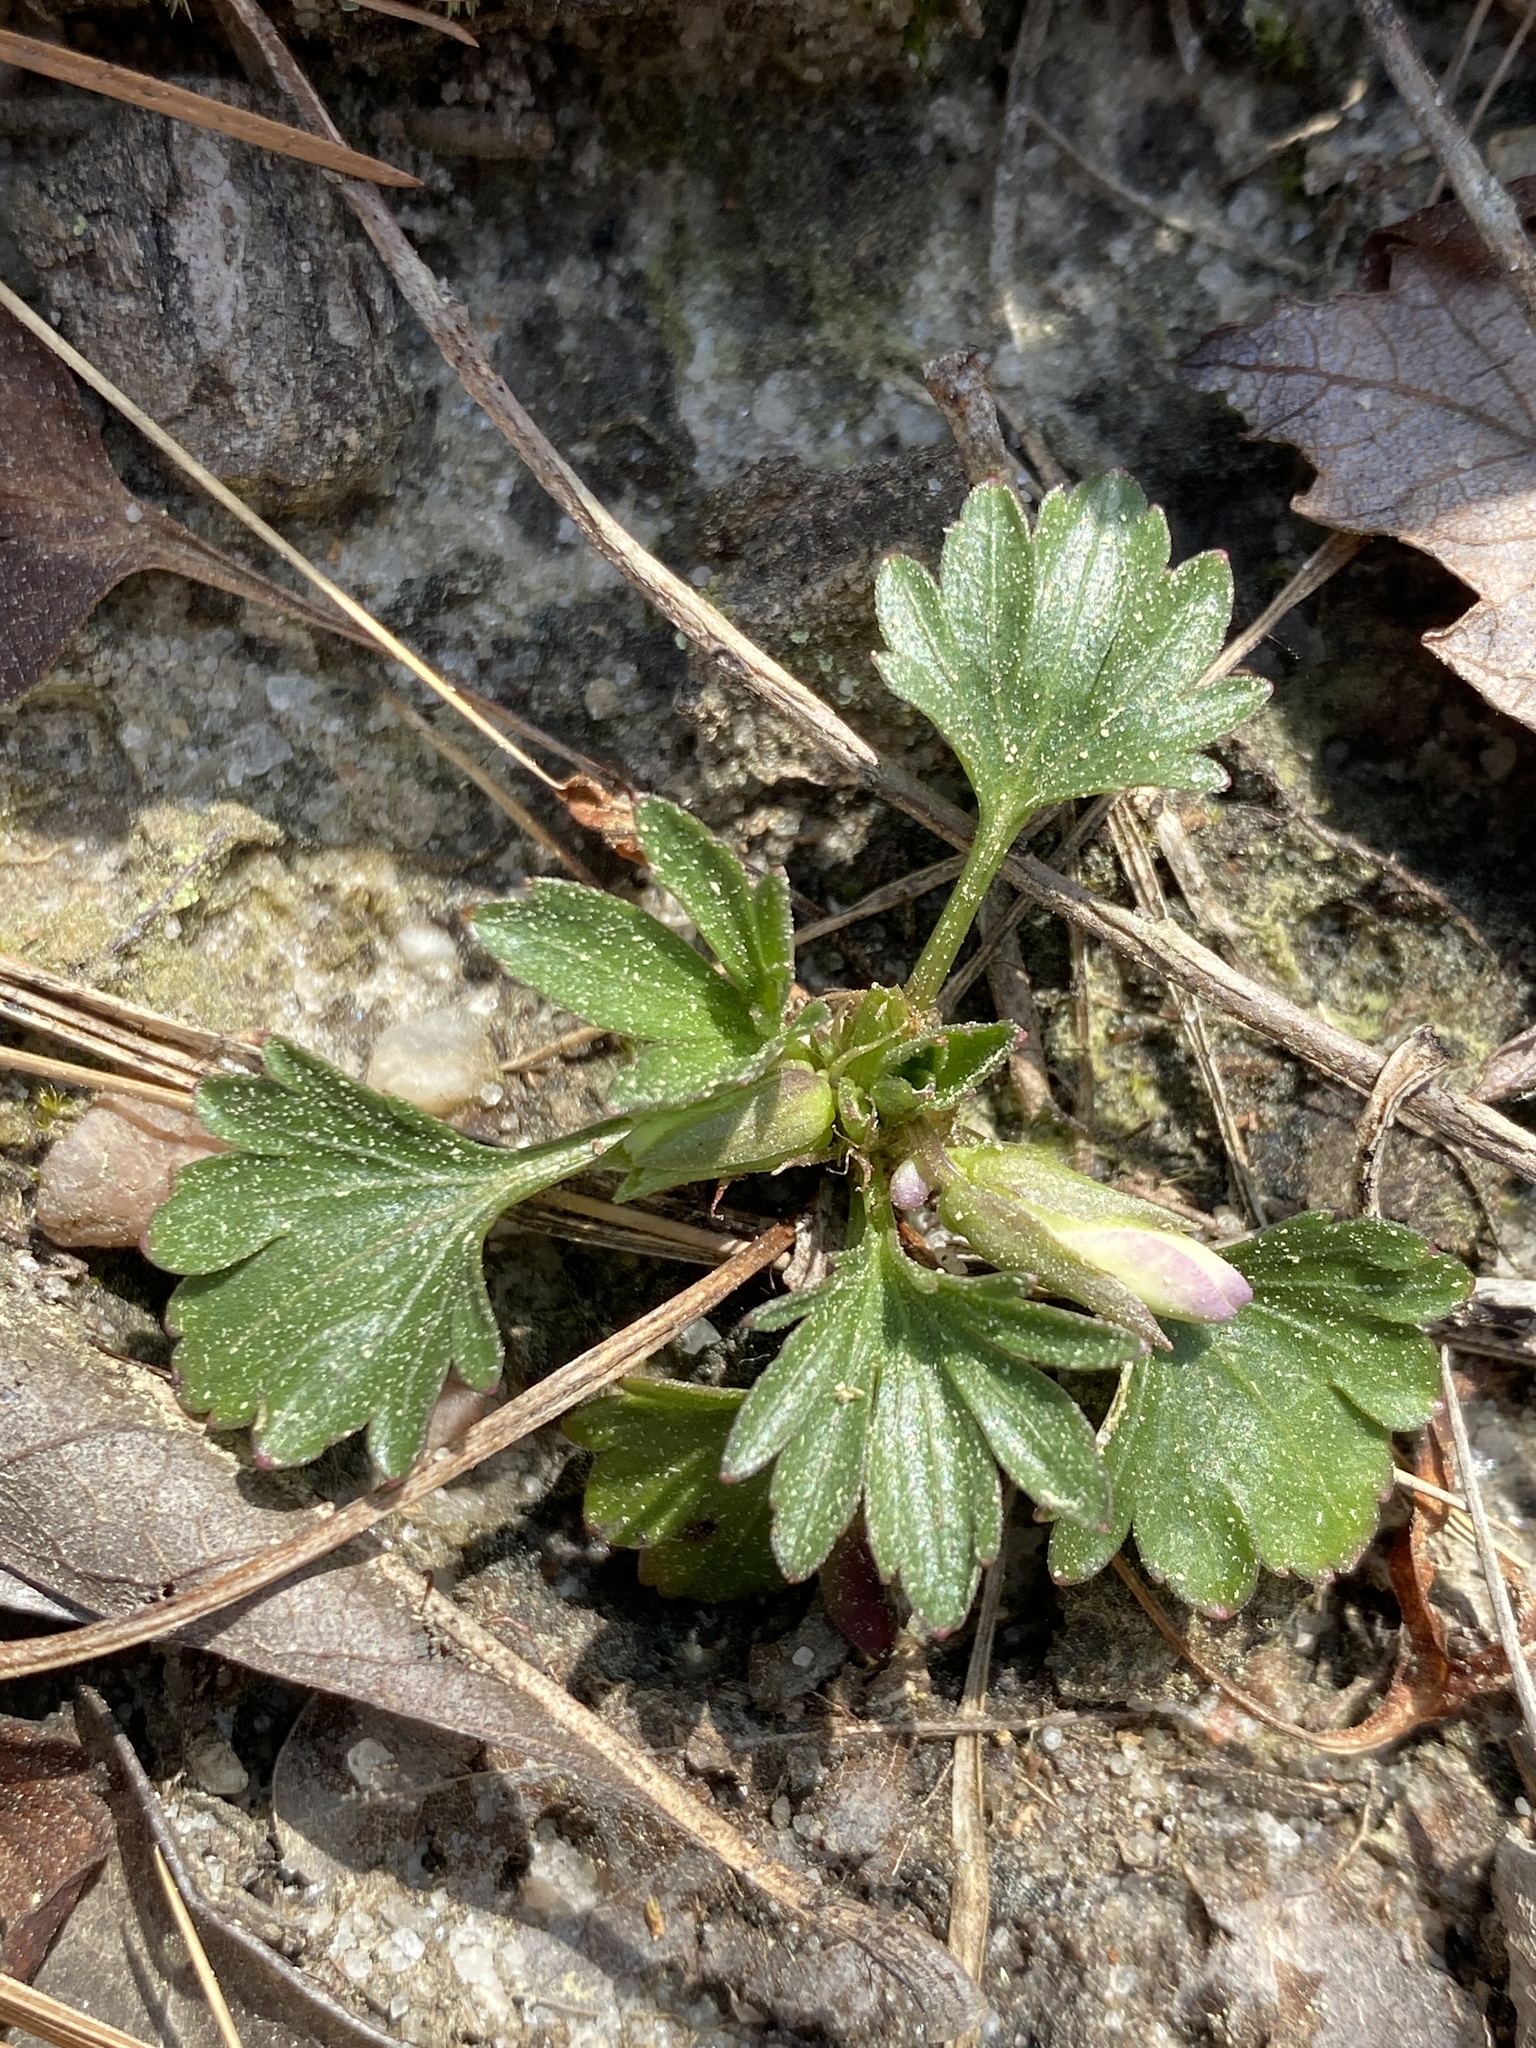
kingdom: Plantae
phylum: Tracheophyta
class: Magnoliopsida
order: Malpighiales
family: Violaceae
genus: Viola
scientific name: Viola pedata
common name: Pansy violet
